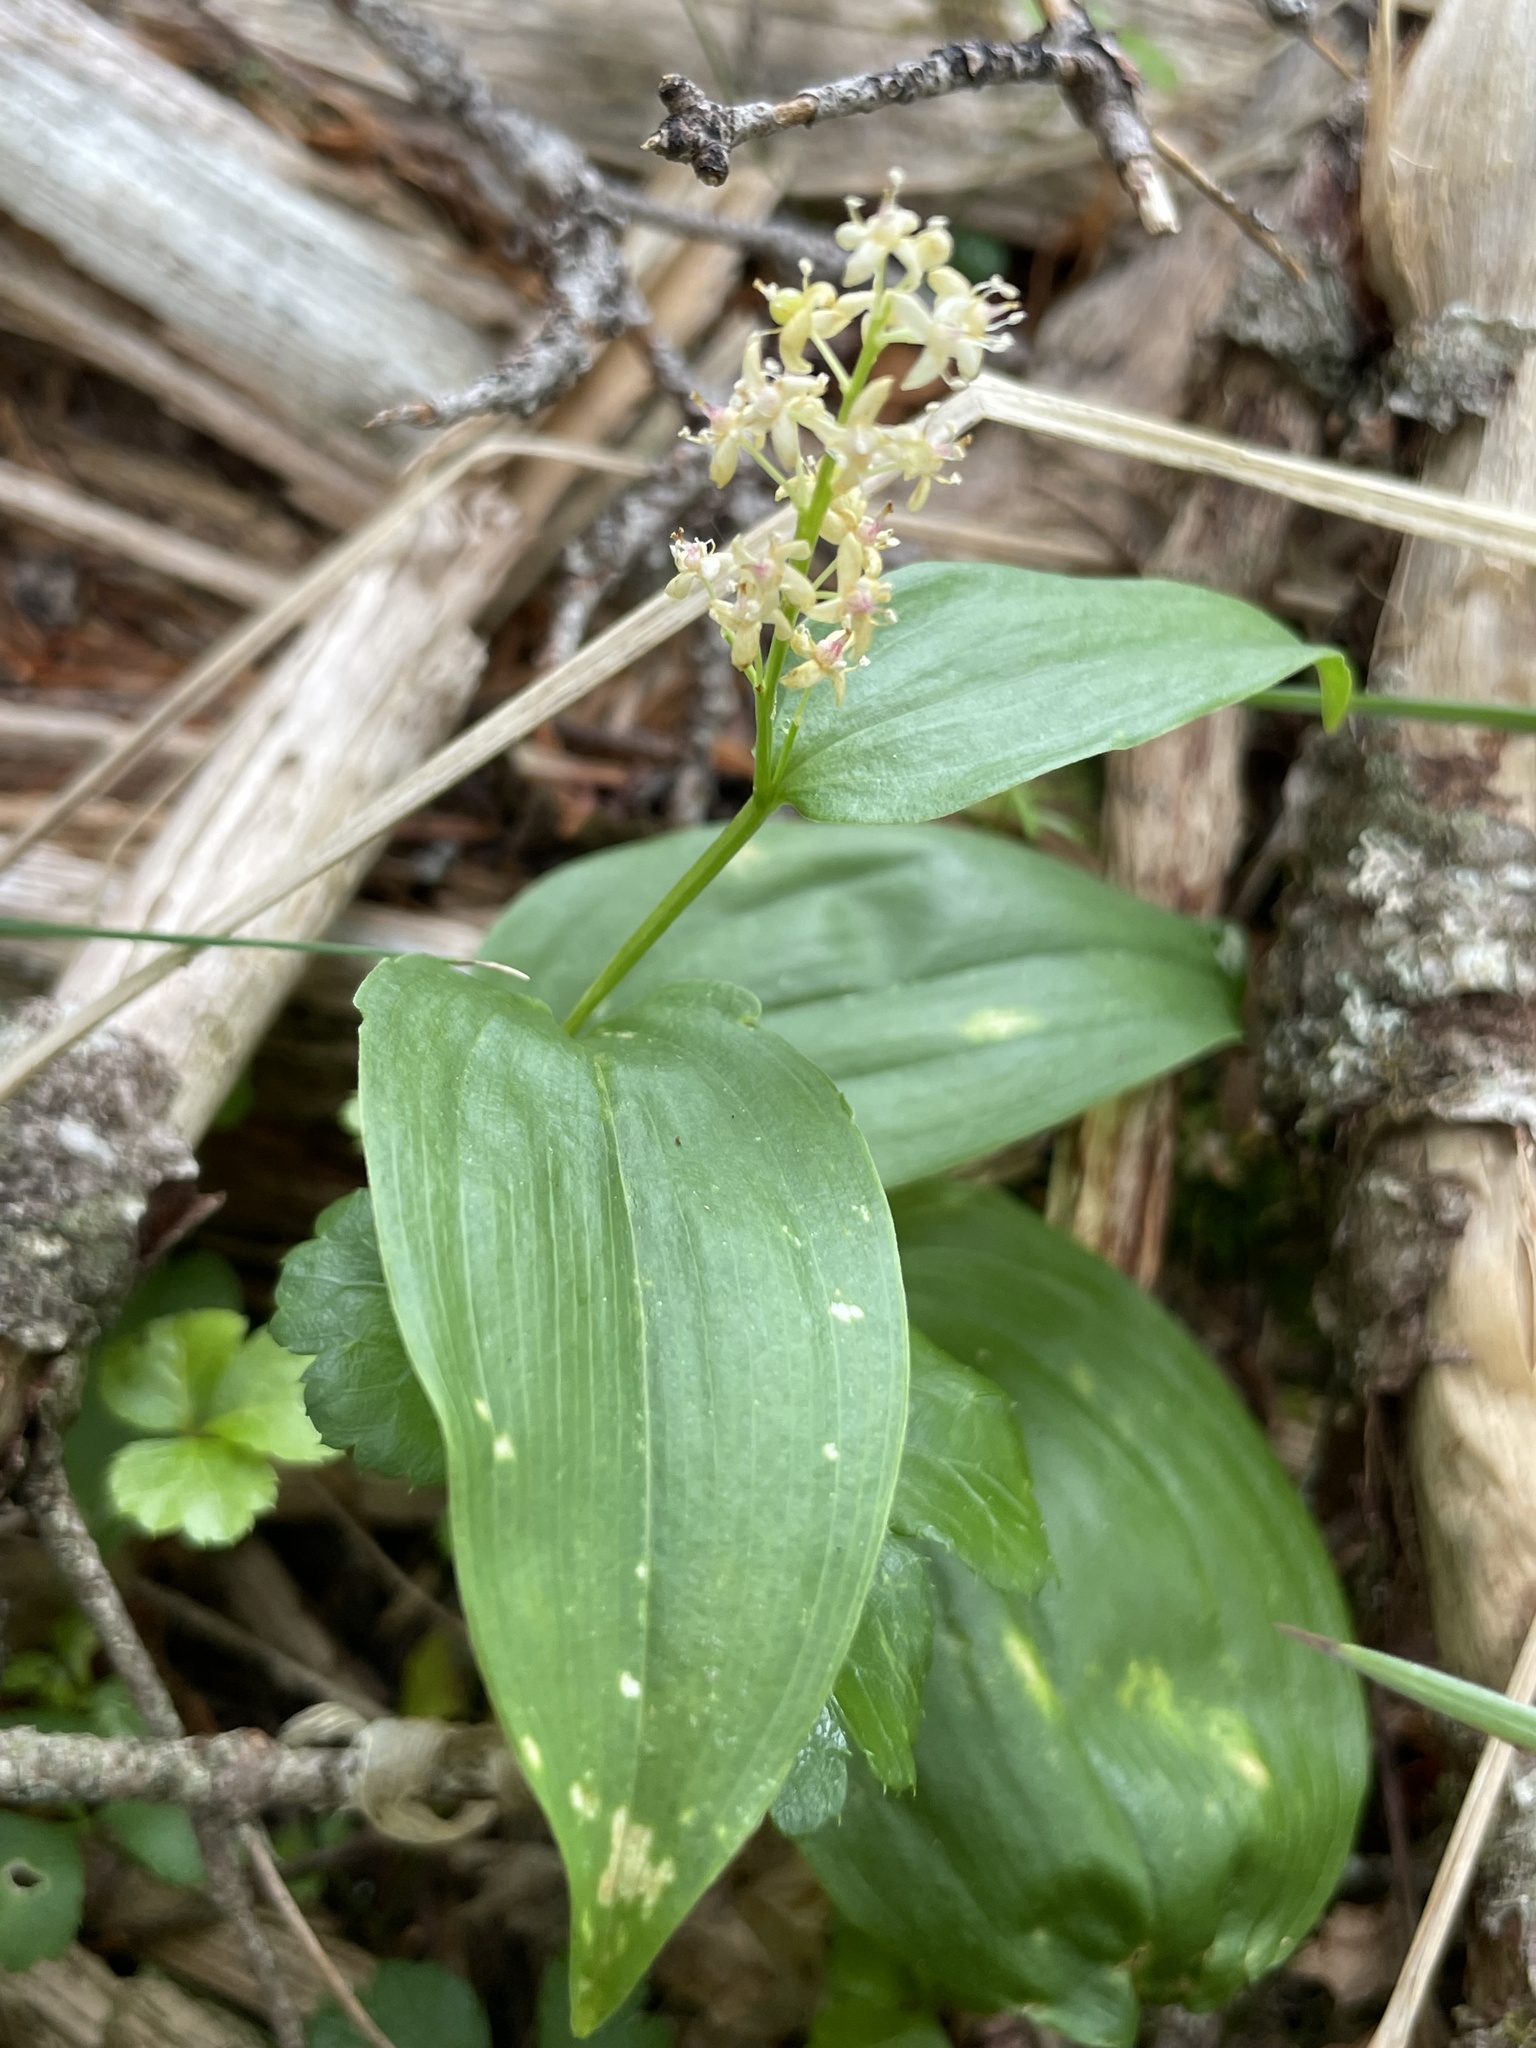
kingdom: Plantae
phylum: Tracheophyta
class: Liliopsida
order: Asparagales
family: Asparagaceae
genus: Maianthemum
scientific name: Maianthemum canadense
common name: False lily-of-the-valley
